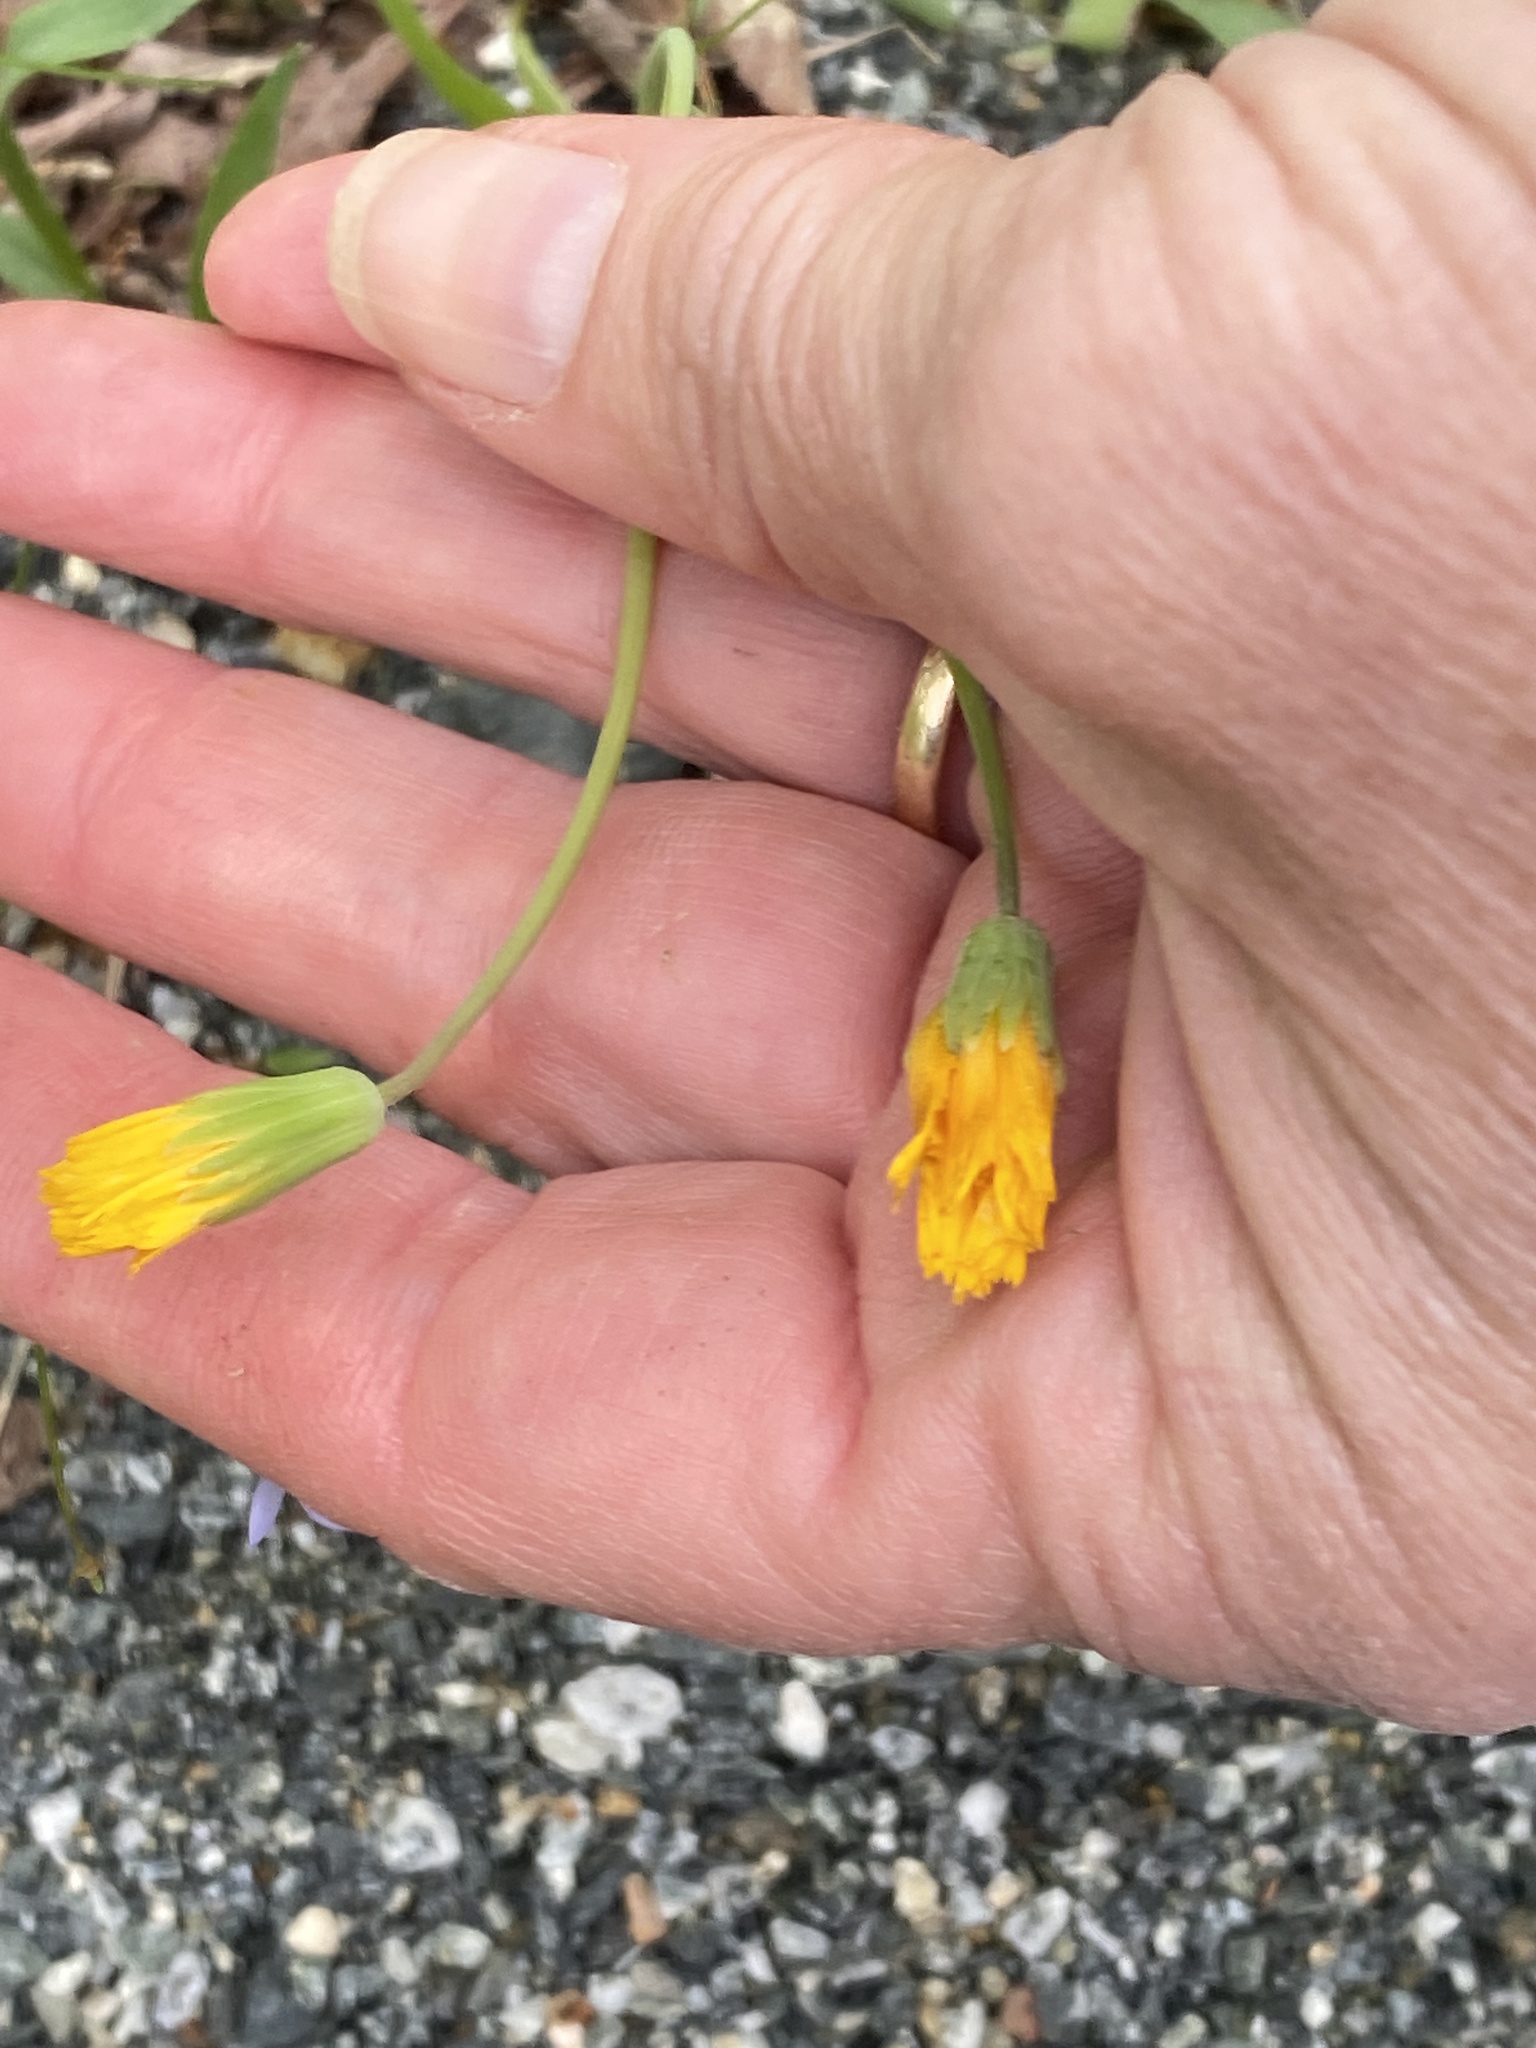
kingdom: Plantae
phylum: Tracheophyta
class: Magnoliopsida
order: Asterales
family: Asteraceae
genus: Krigia
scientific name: Krigia virginica
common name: Virginia dwarf-dandelion
